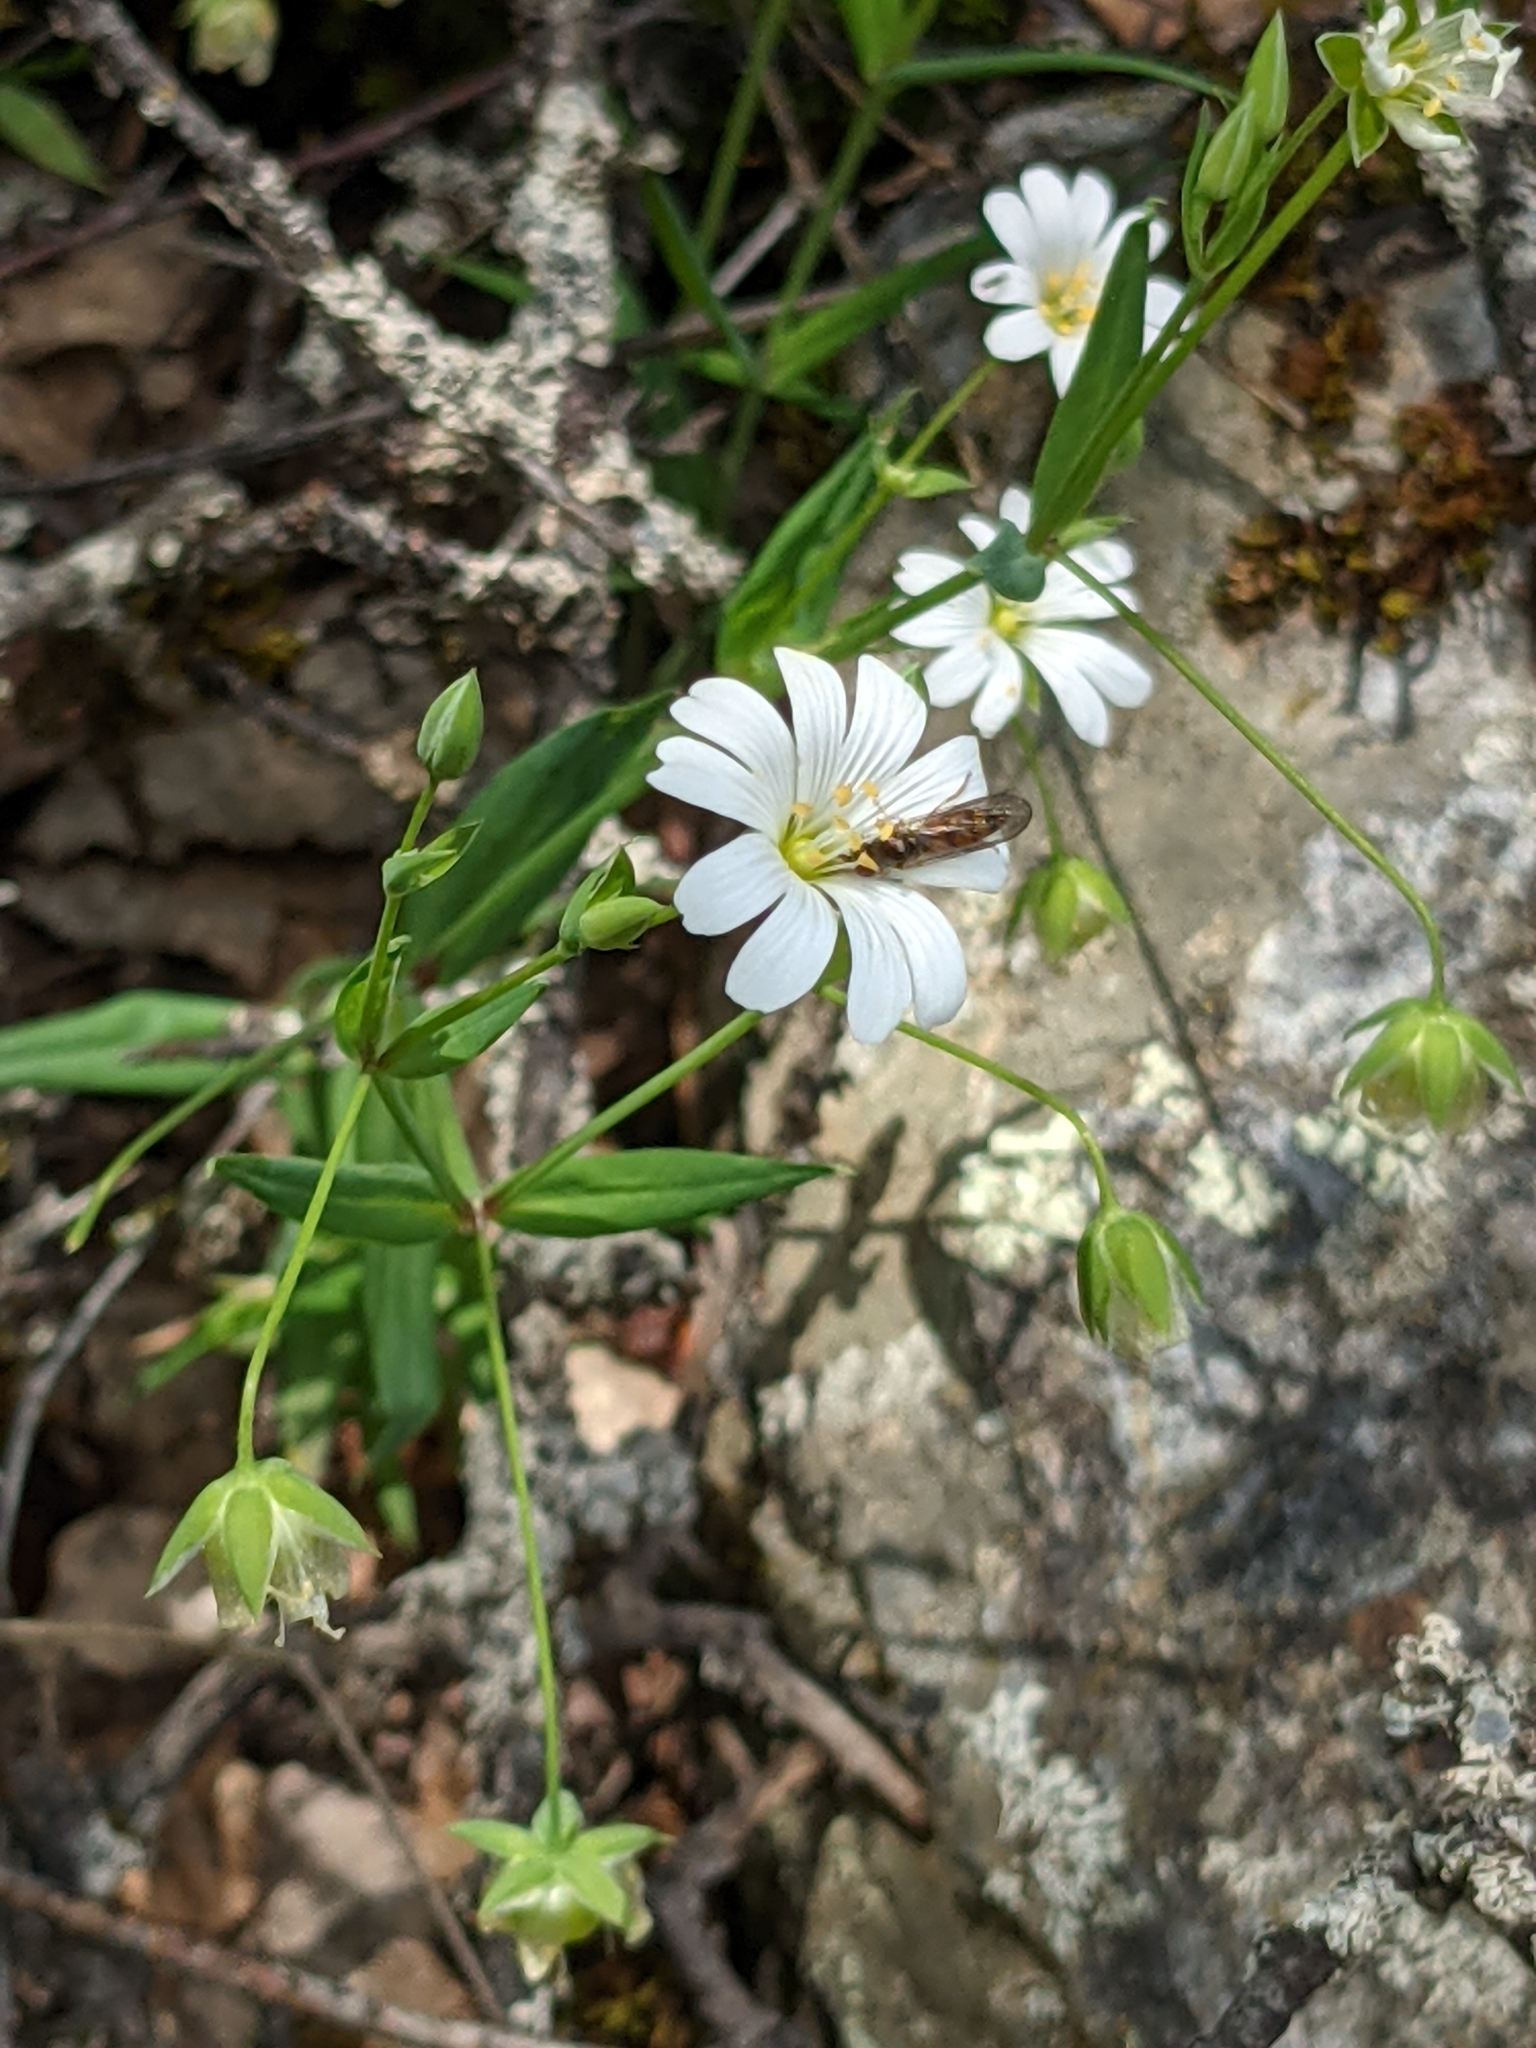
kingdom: Plantae
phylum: Tracheophyta
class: Magnoliopsida
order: Caryophyllales
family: Caryophyllaceae
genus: Rabelera
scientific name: Rabelera holostea
